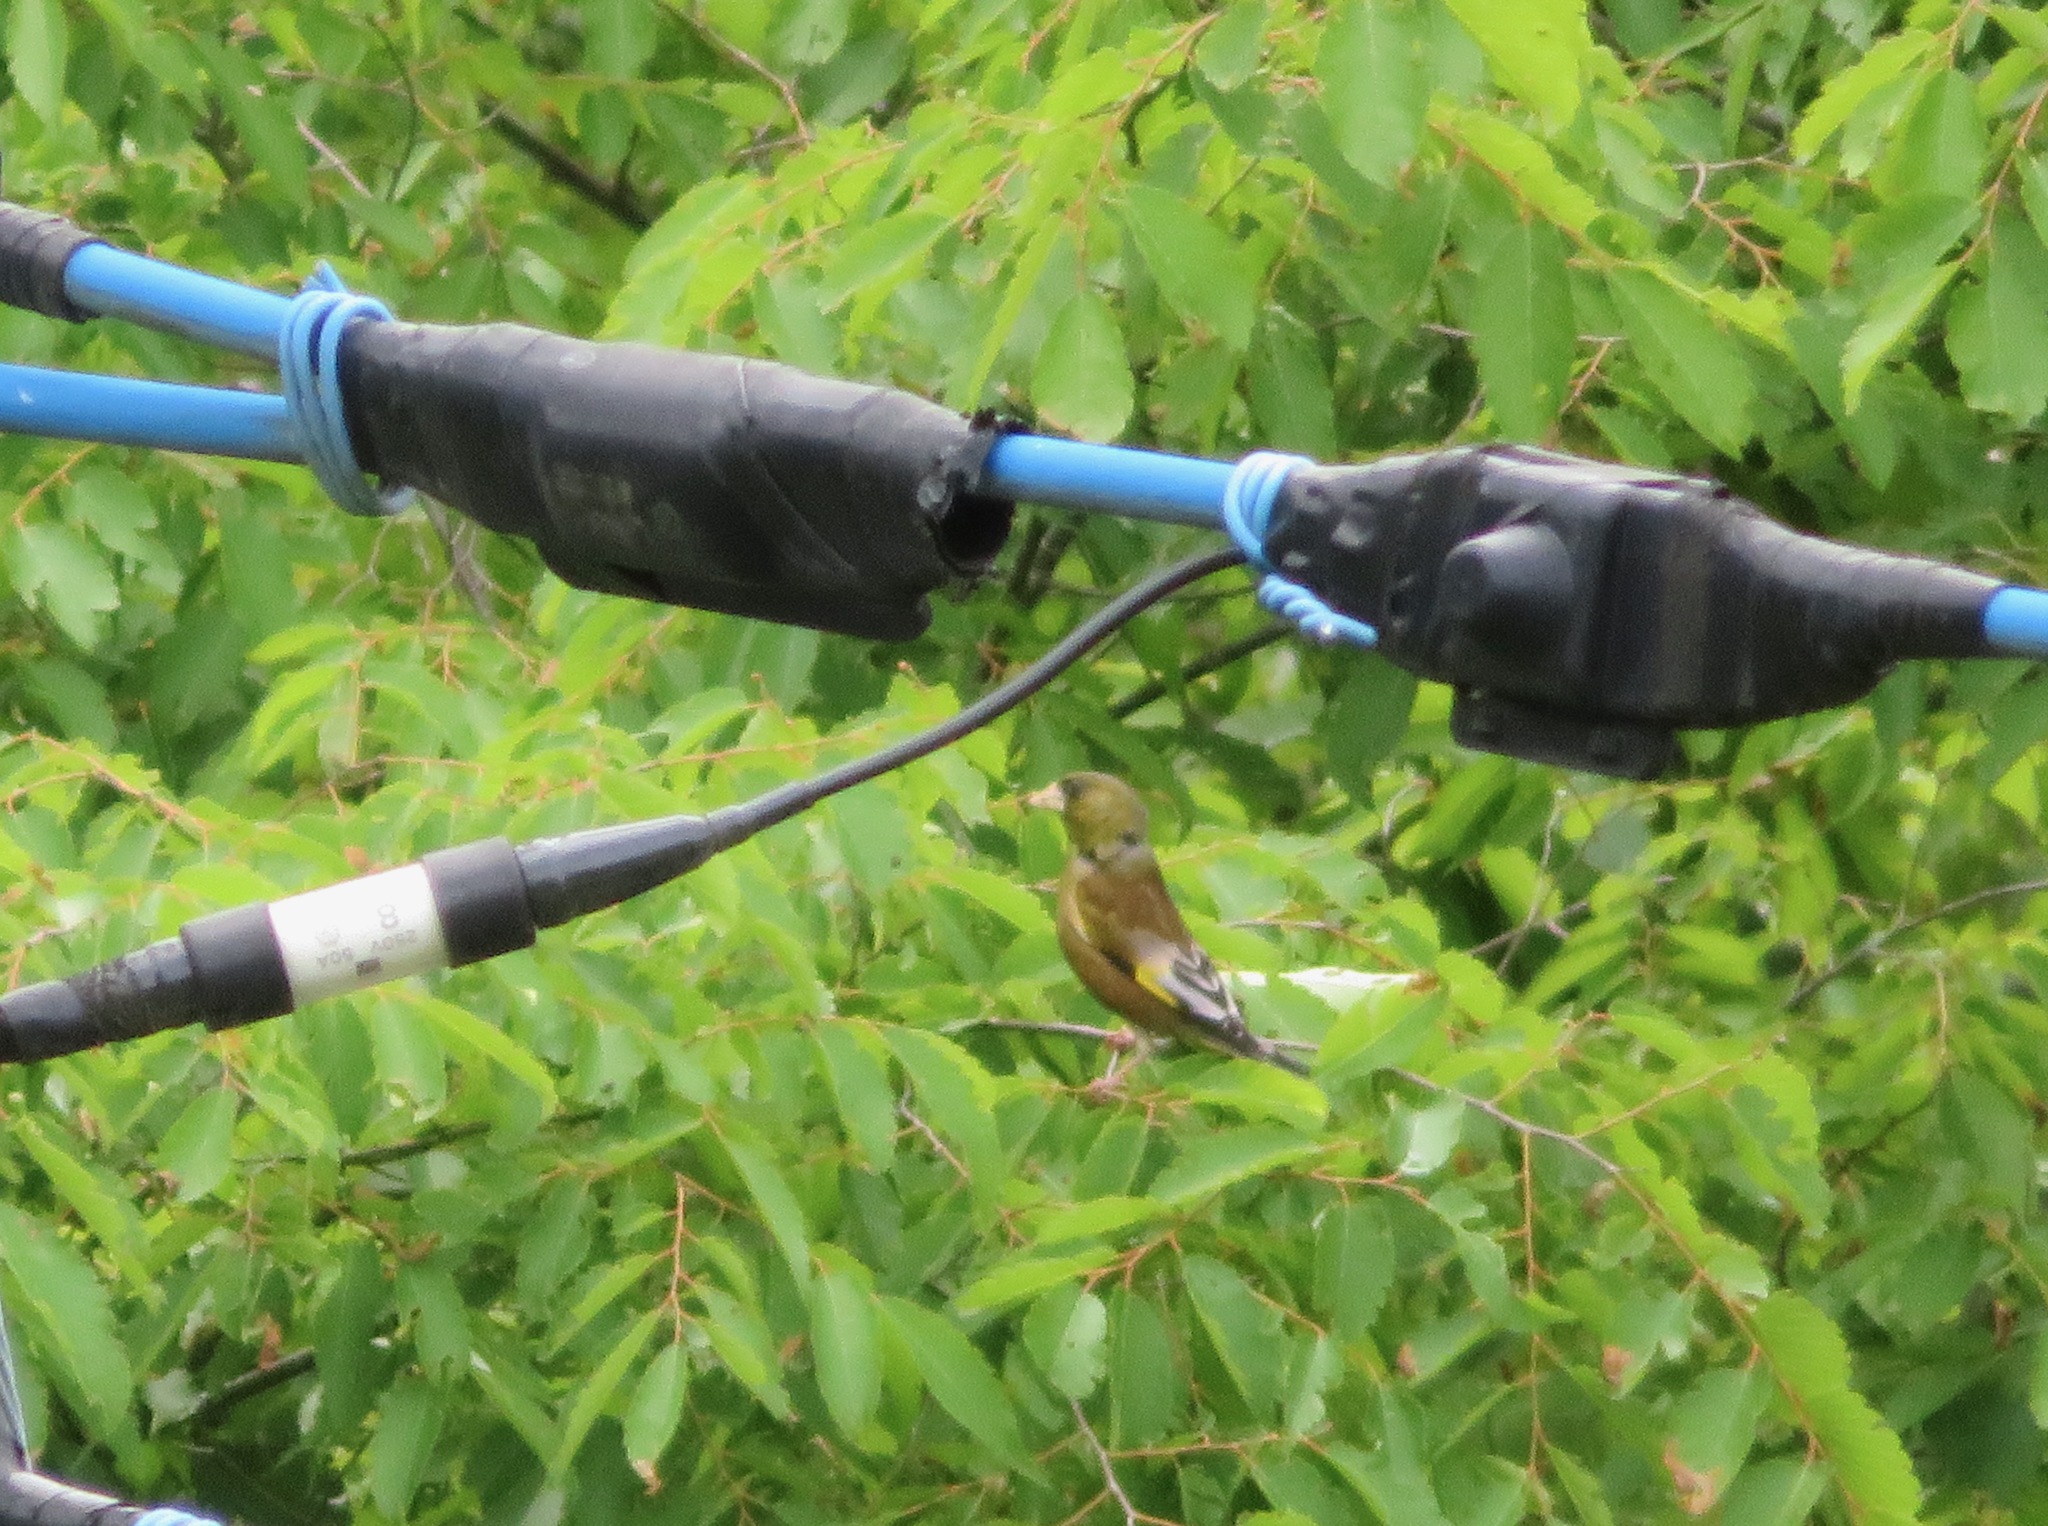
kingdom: Plantae
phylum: Tracheophyta
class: Liliopsida
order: Poales
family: Poaceae
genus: Chloris
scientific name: Chloris sinica
